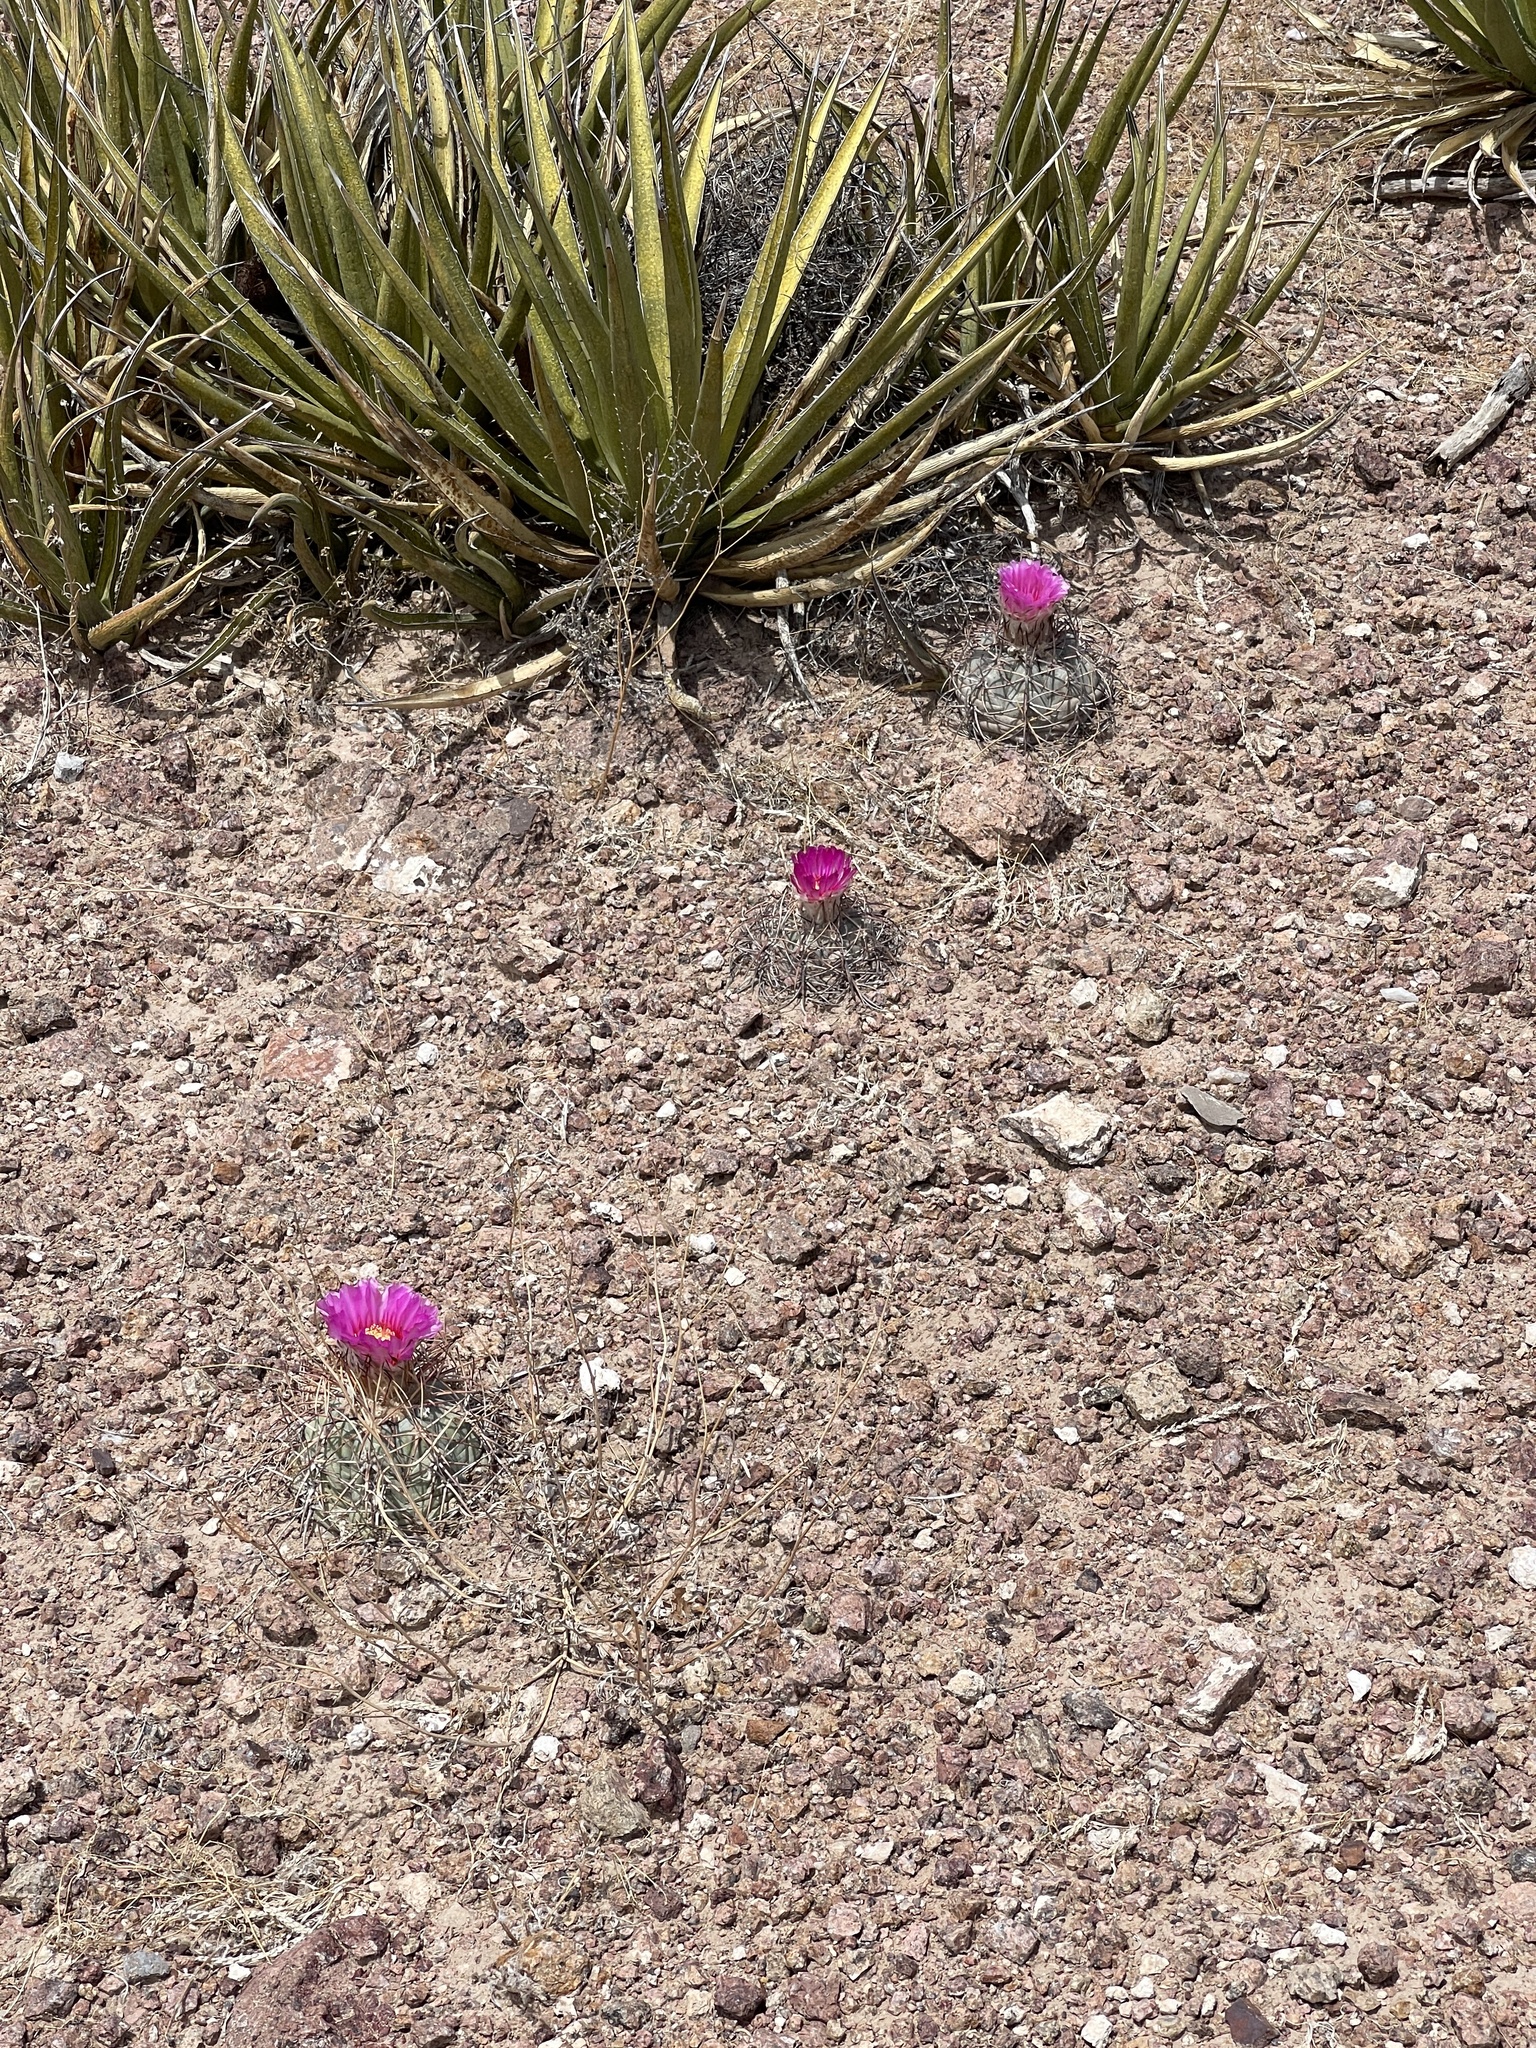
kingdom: Plantae
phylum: Tracheophyta
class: Magnoliopsida
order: Caryophyllales
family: Cactaceae
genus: Echinocactus
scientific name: Echinocactus horizonthalonius
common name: Devilshead
